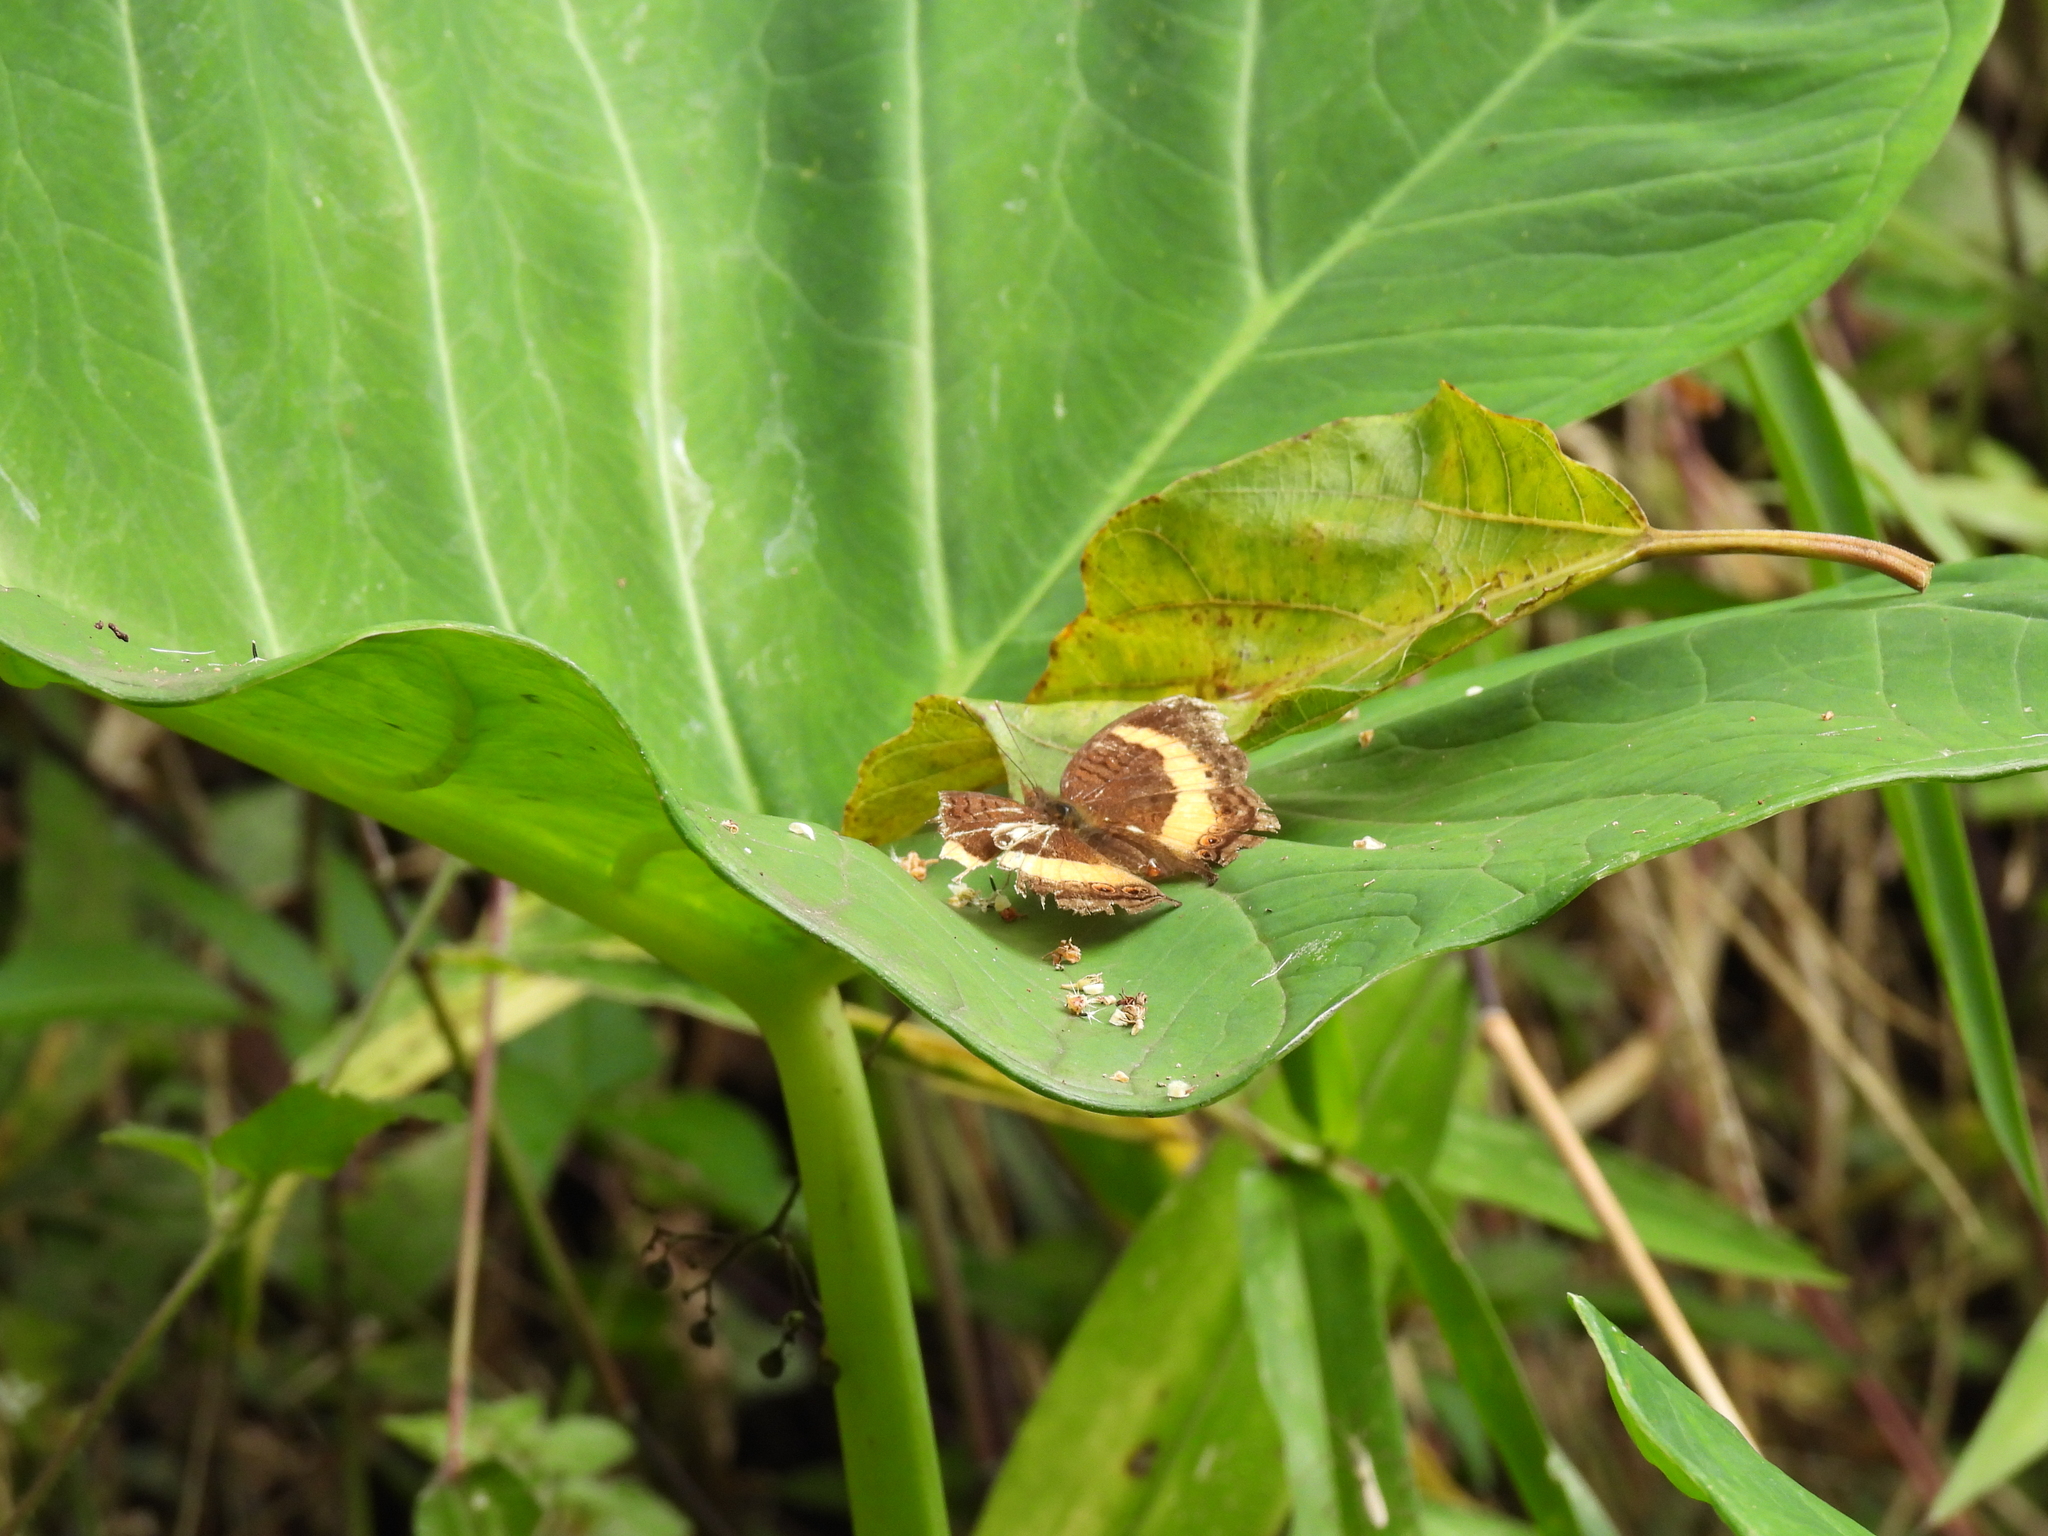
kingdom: Animalia
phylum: Arthropoda
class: Insecta
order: Lepidoptera
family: Nymphalidae
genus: Junonia
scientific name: Junonia terea
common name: Soldier pansy
